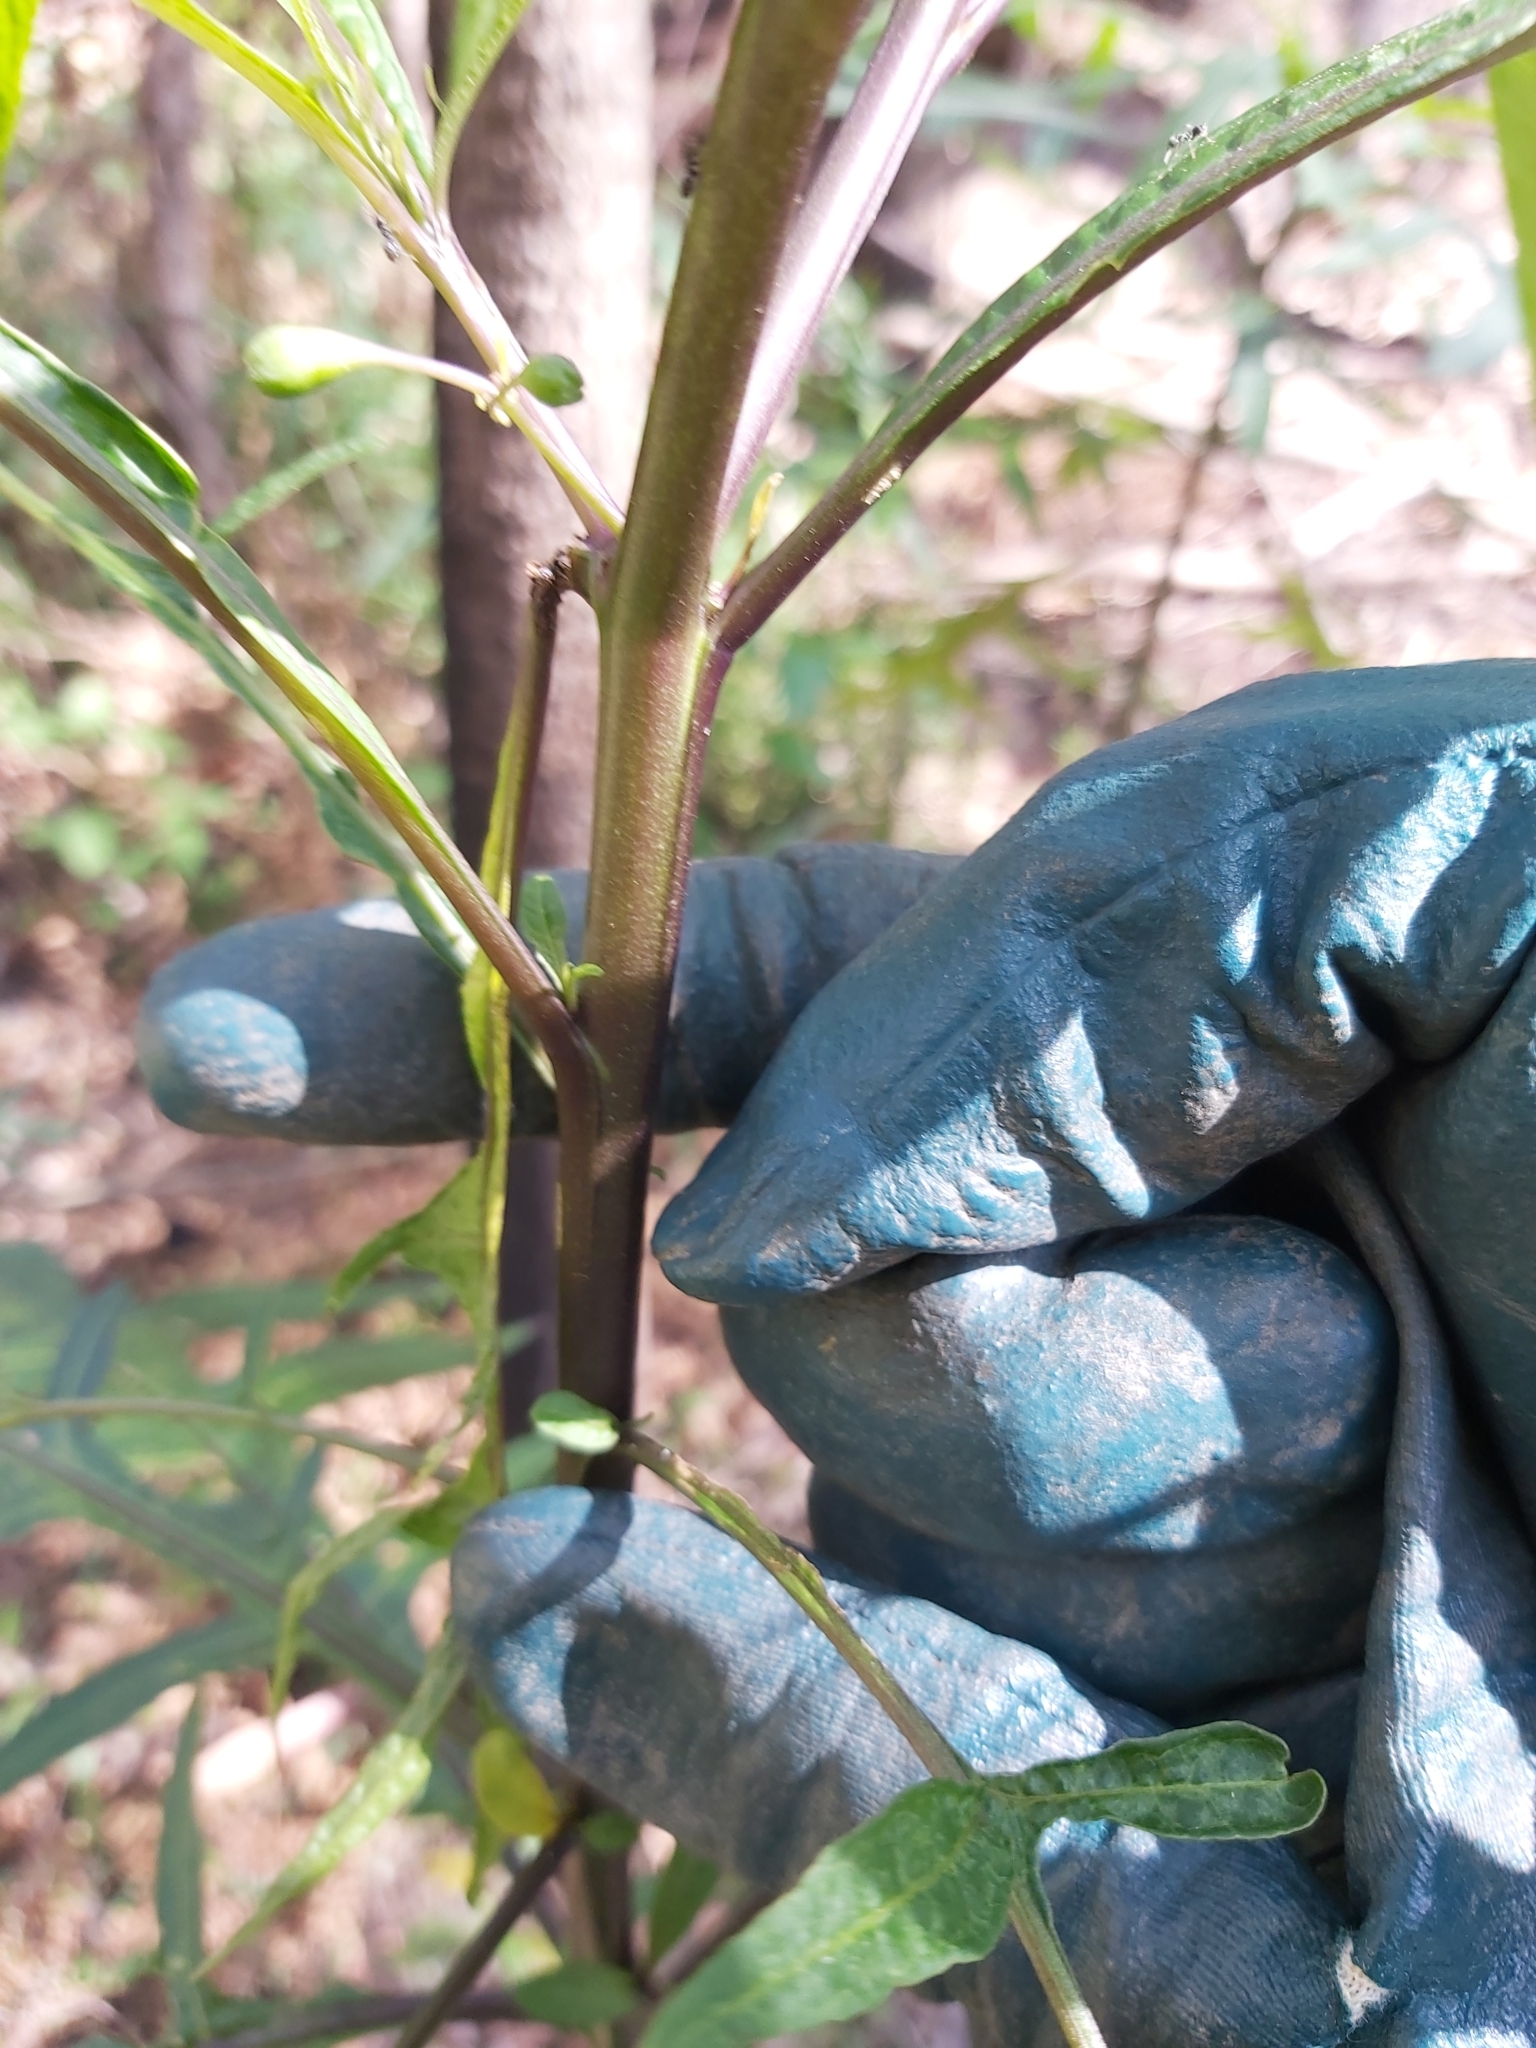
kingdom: Plantae
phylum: Tracheophyta
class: Magnoliopsida
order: Solanales
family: Solanaceae
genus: Solanum
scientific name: Solanum
